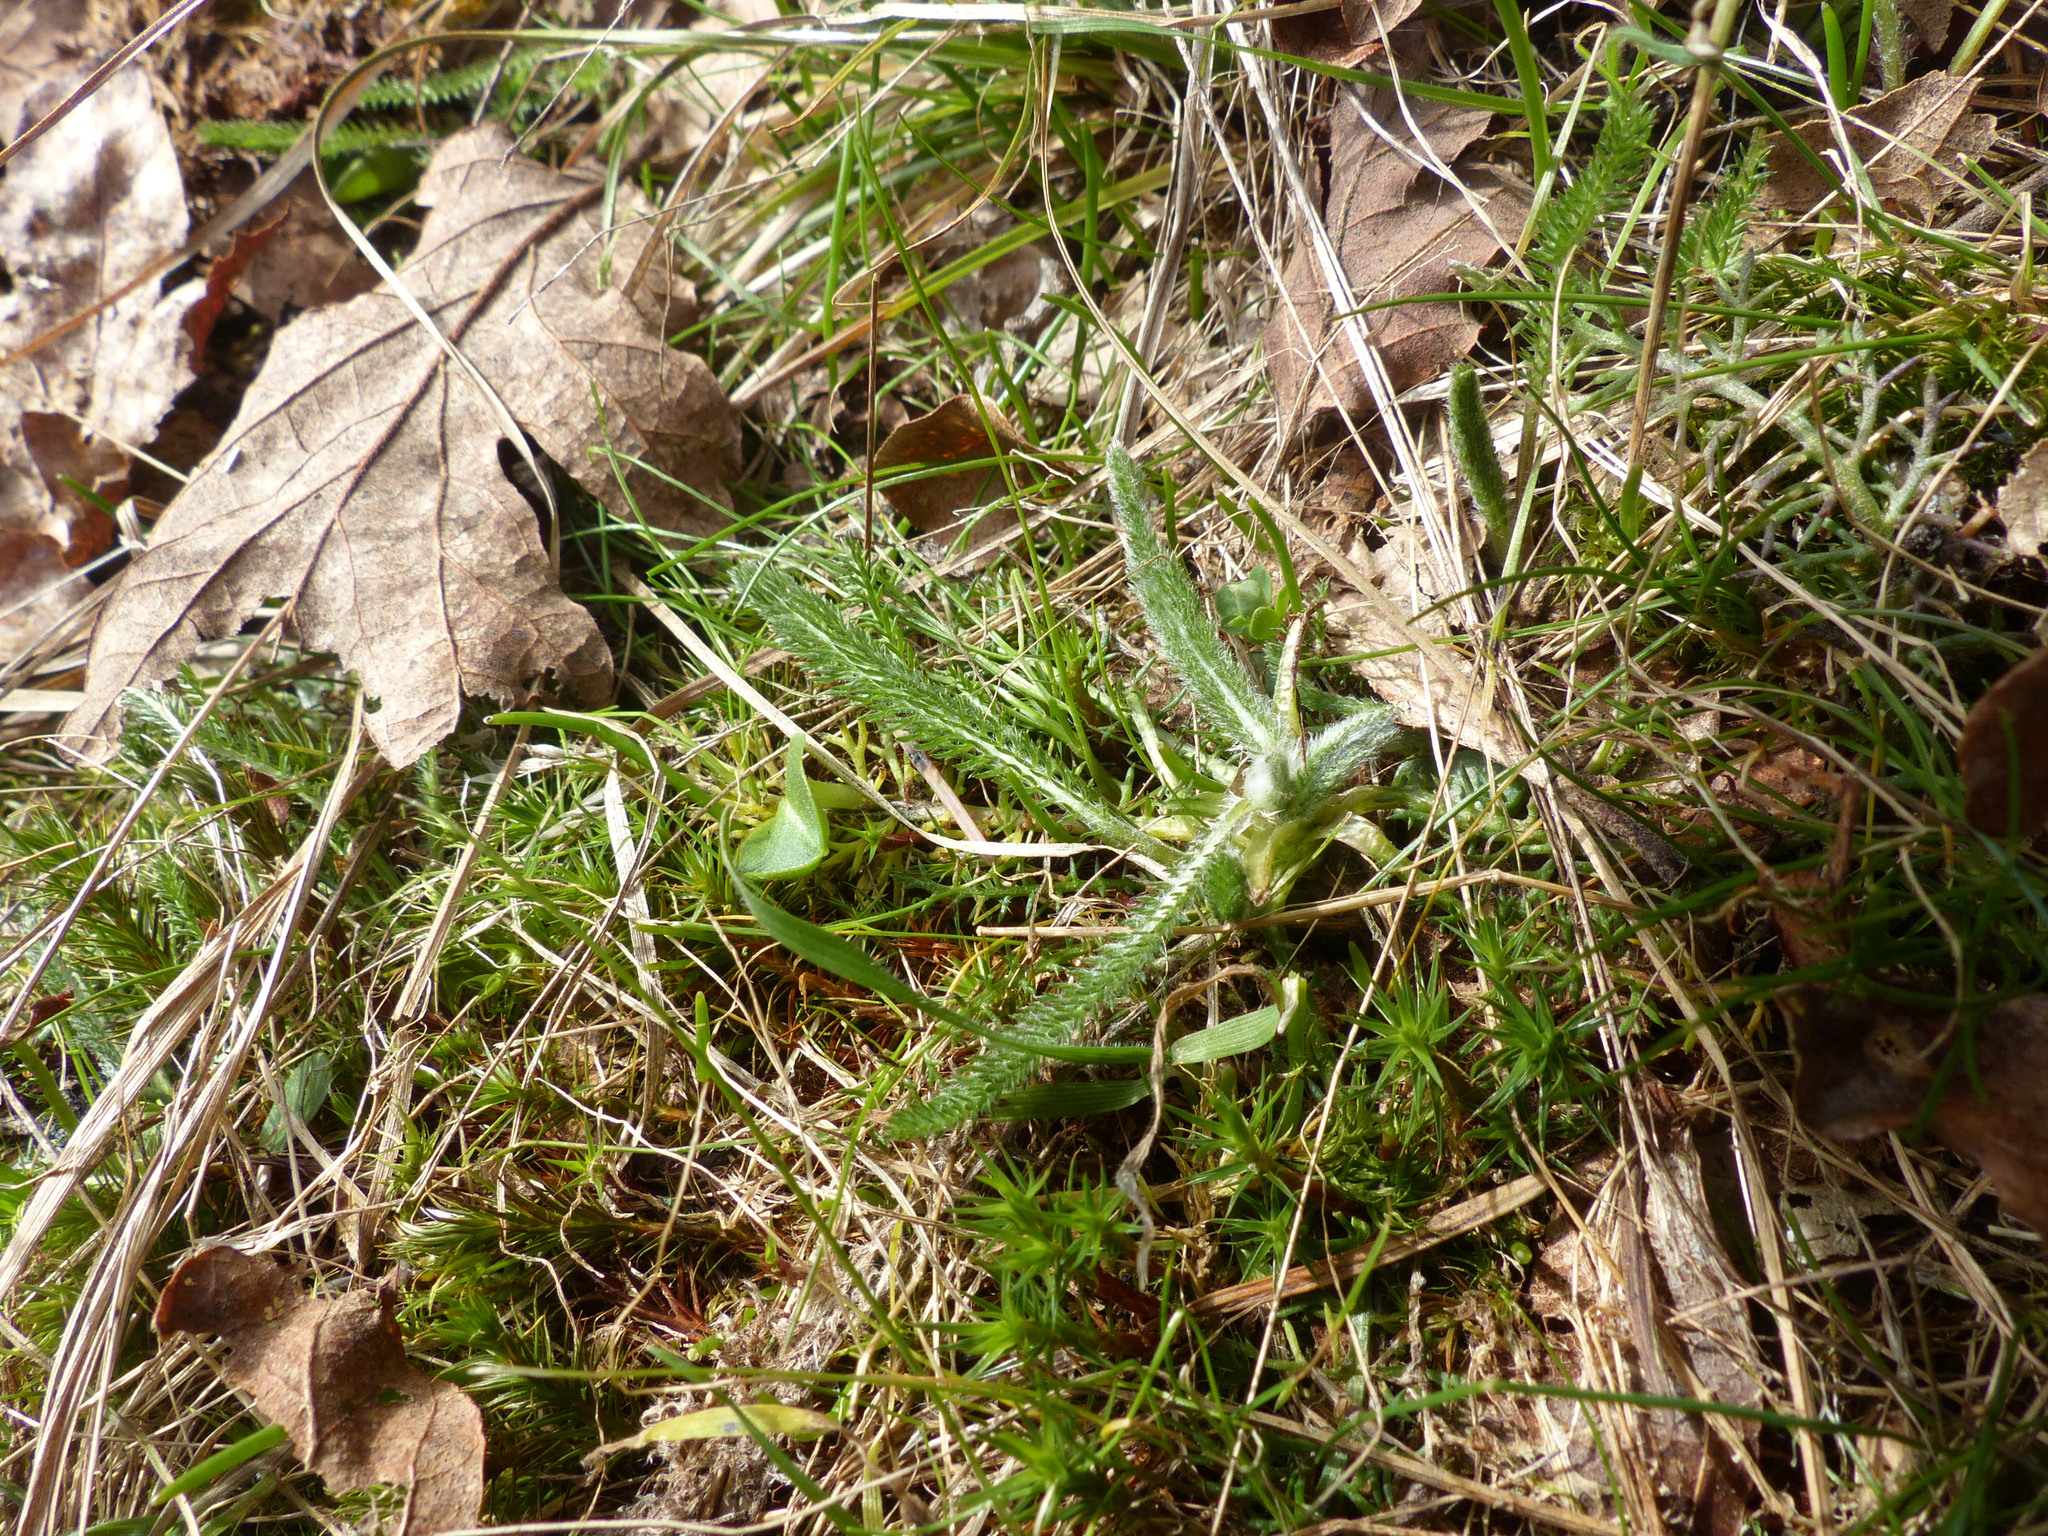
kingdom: Plantae
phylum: Tracheophyta
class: Magnoliopsida
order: Asterales
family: Asteraceae
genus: Achillea
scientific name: Achillea millefolium
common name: Yarrow
